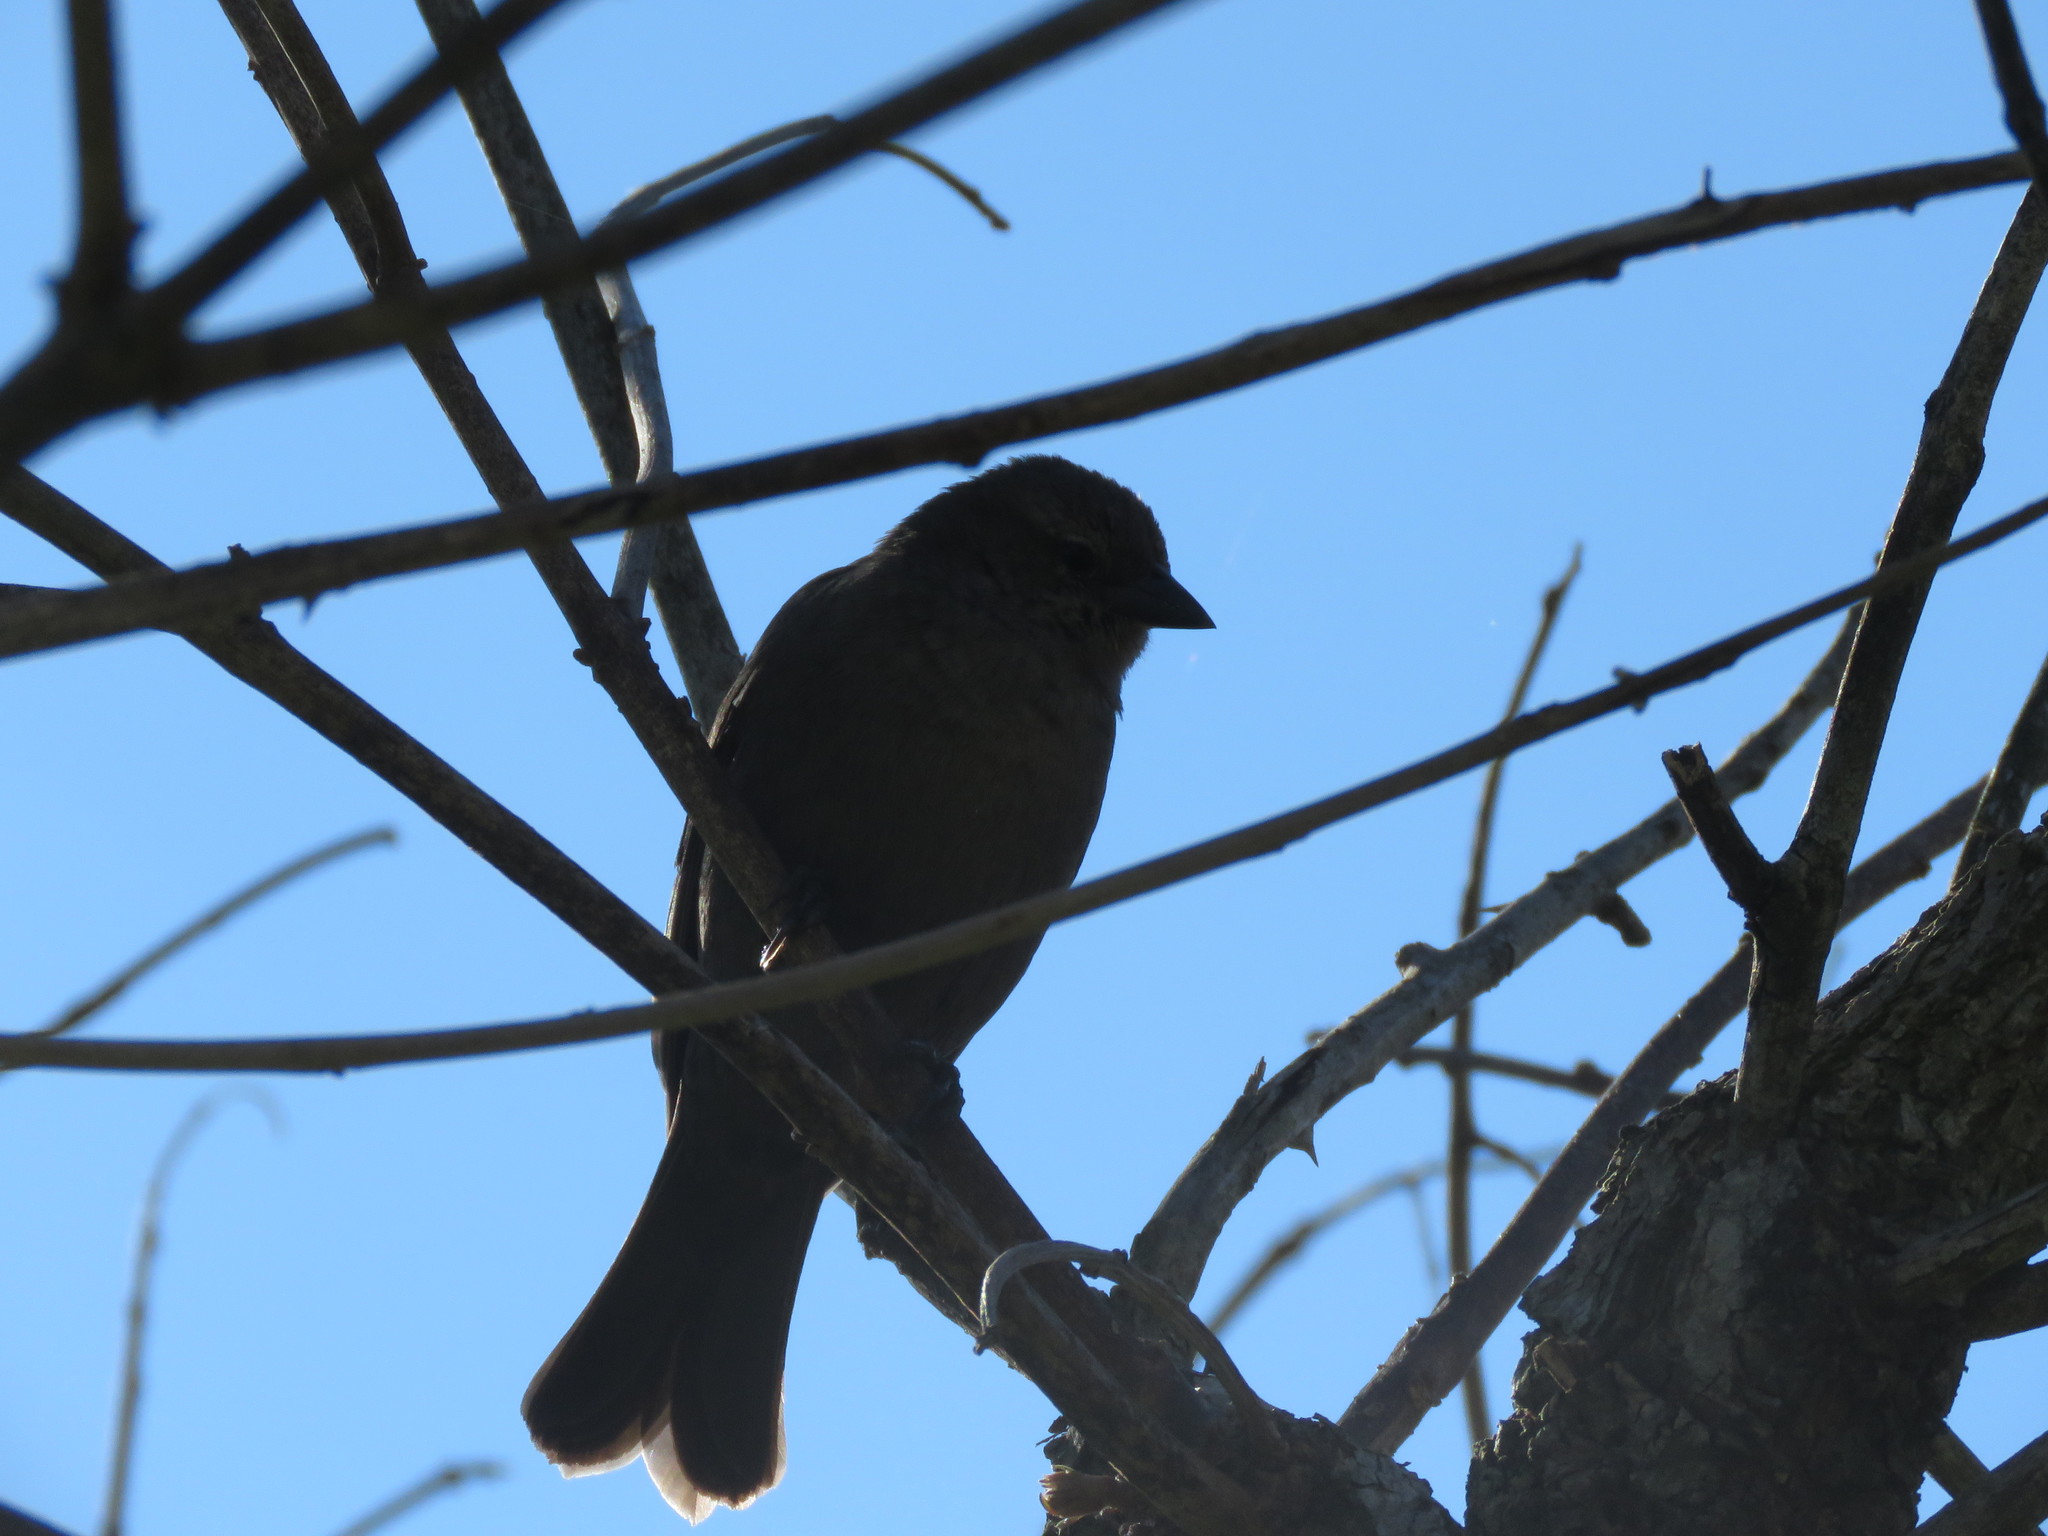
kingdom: Animalia
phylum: Chordata
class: Aves
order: Passeriformes
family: Icteridae
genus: Molothrus
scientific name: Molothrus bonariensis
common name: Shiny cowbird
